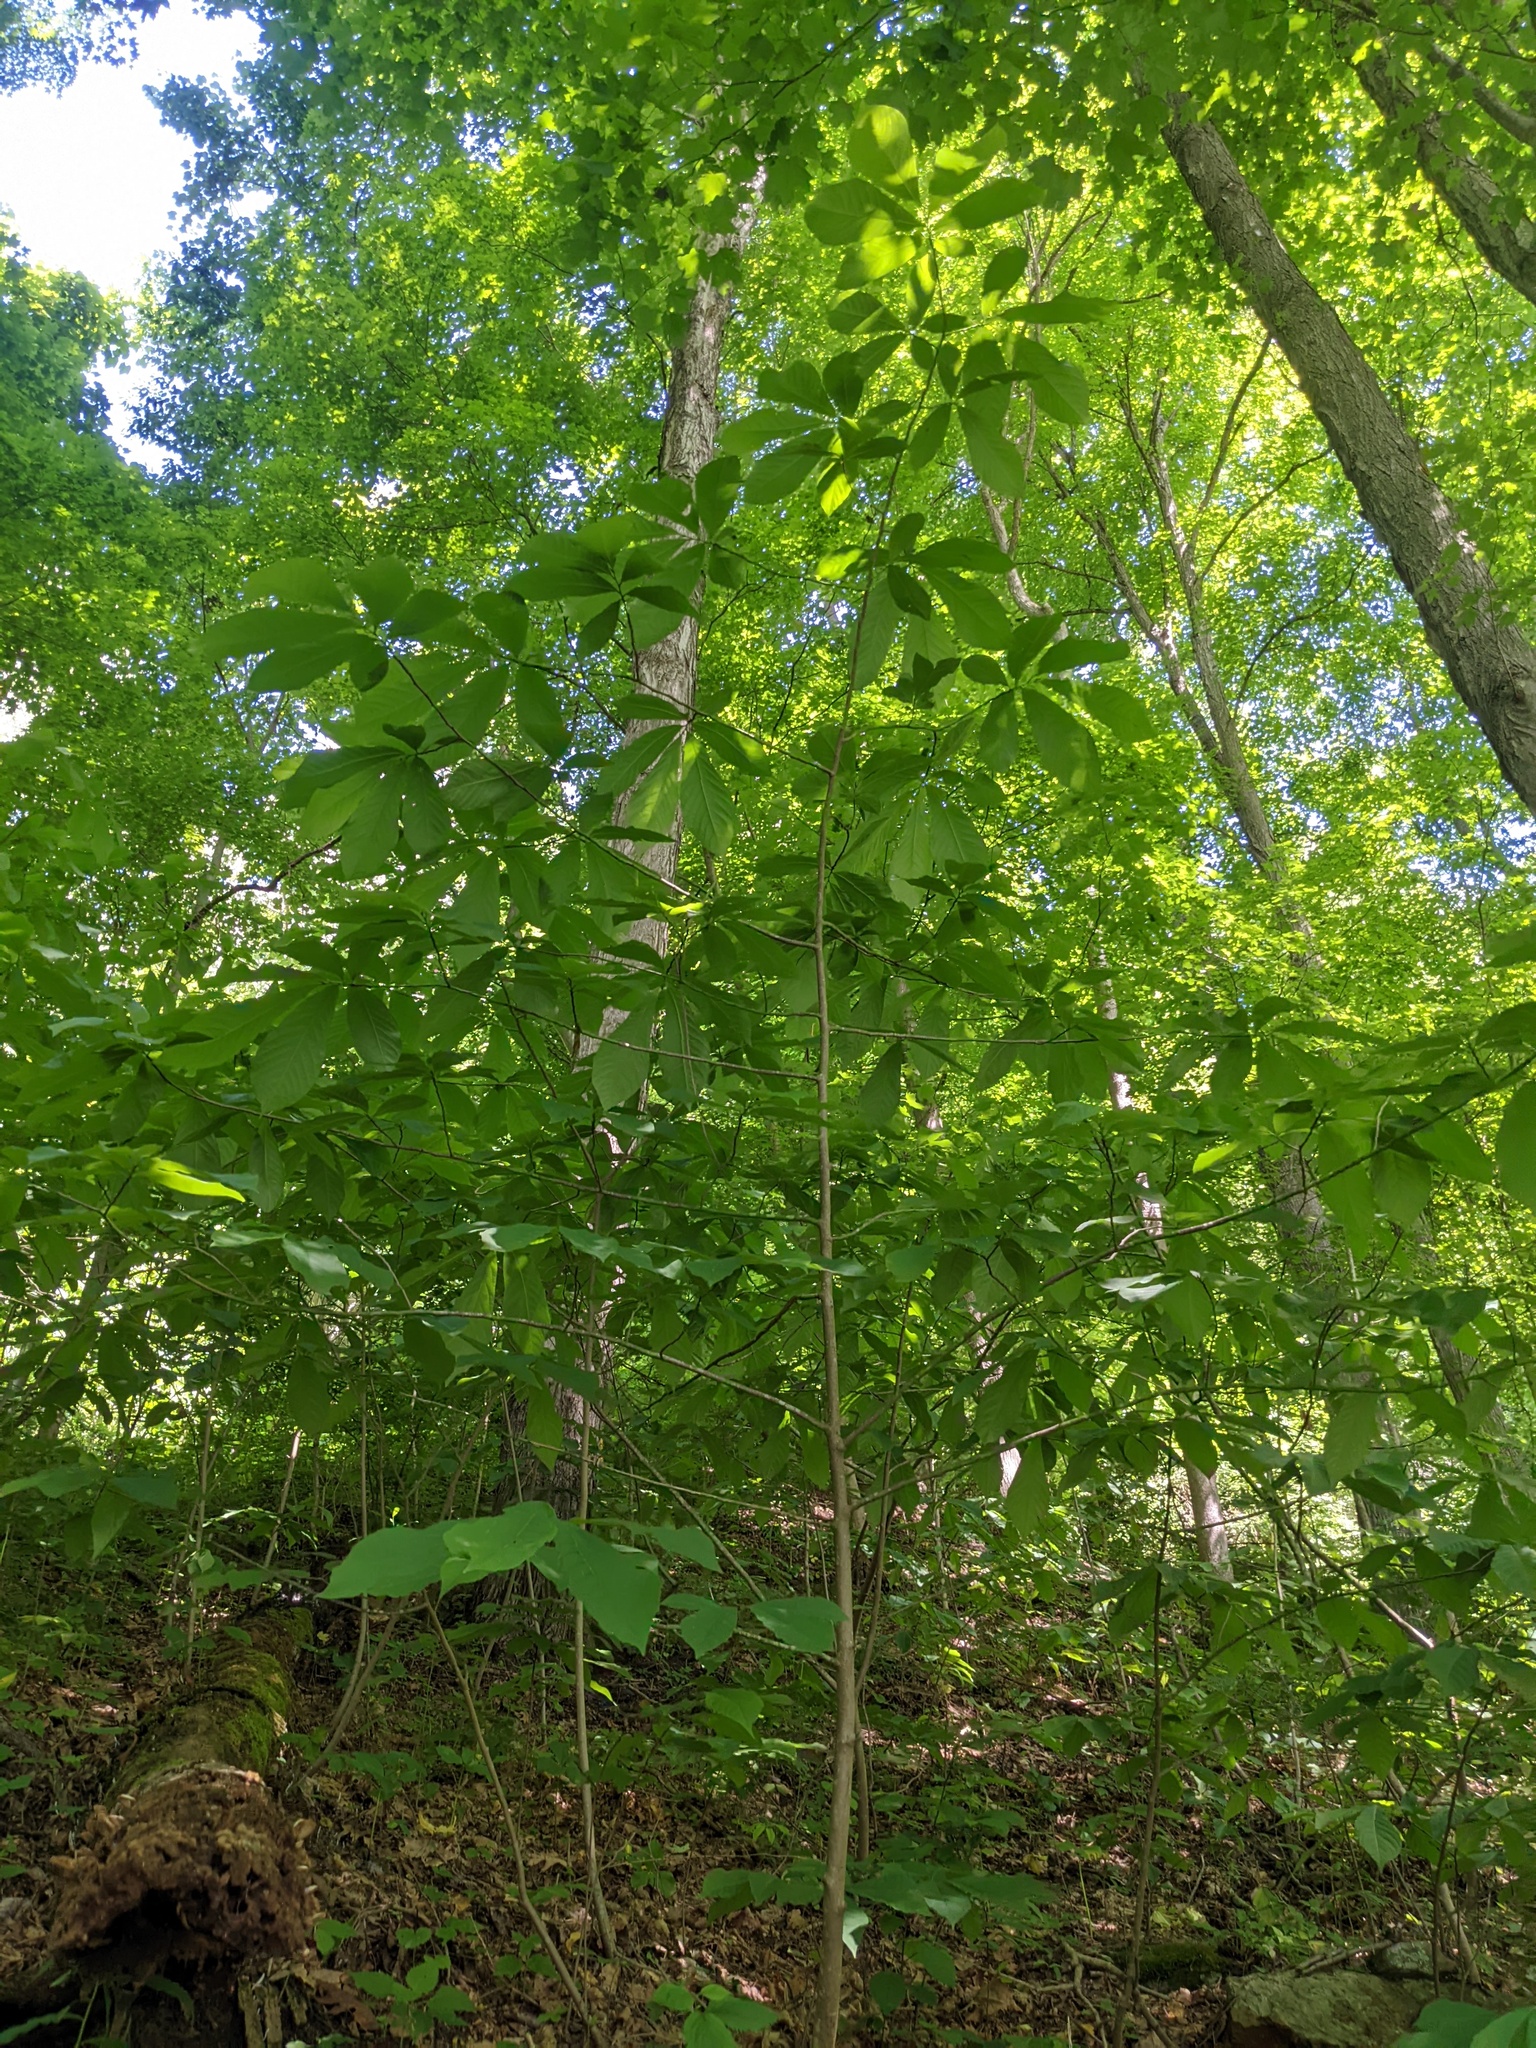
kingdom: Plantae
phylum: Tracheophyta
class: Magnoliopsida
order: Magnoliales
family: Annonaceae
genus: Asimina
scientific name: Asimina triloba
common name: Dog-banana
